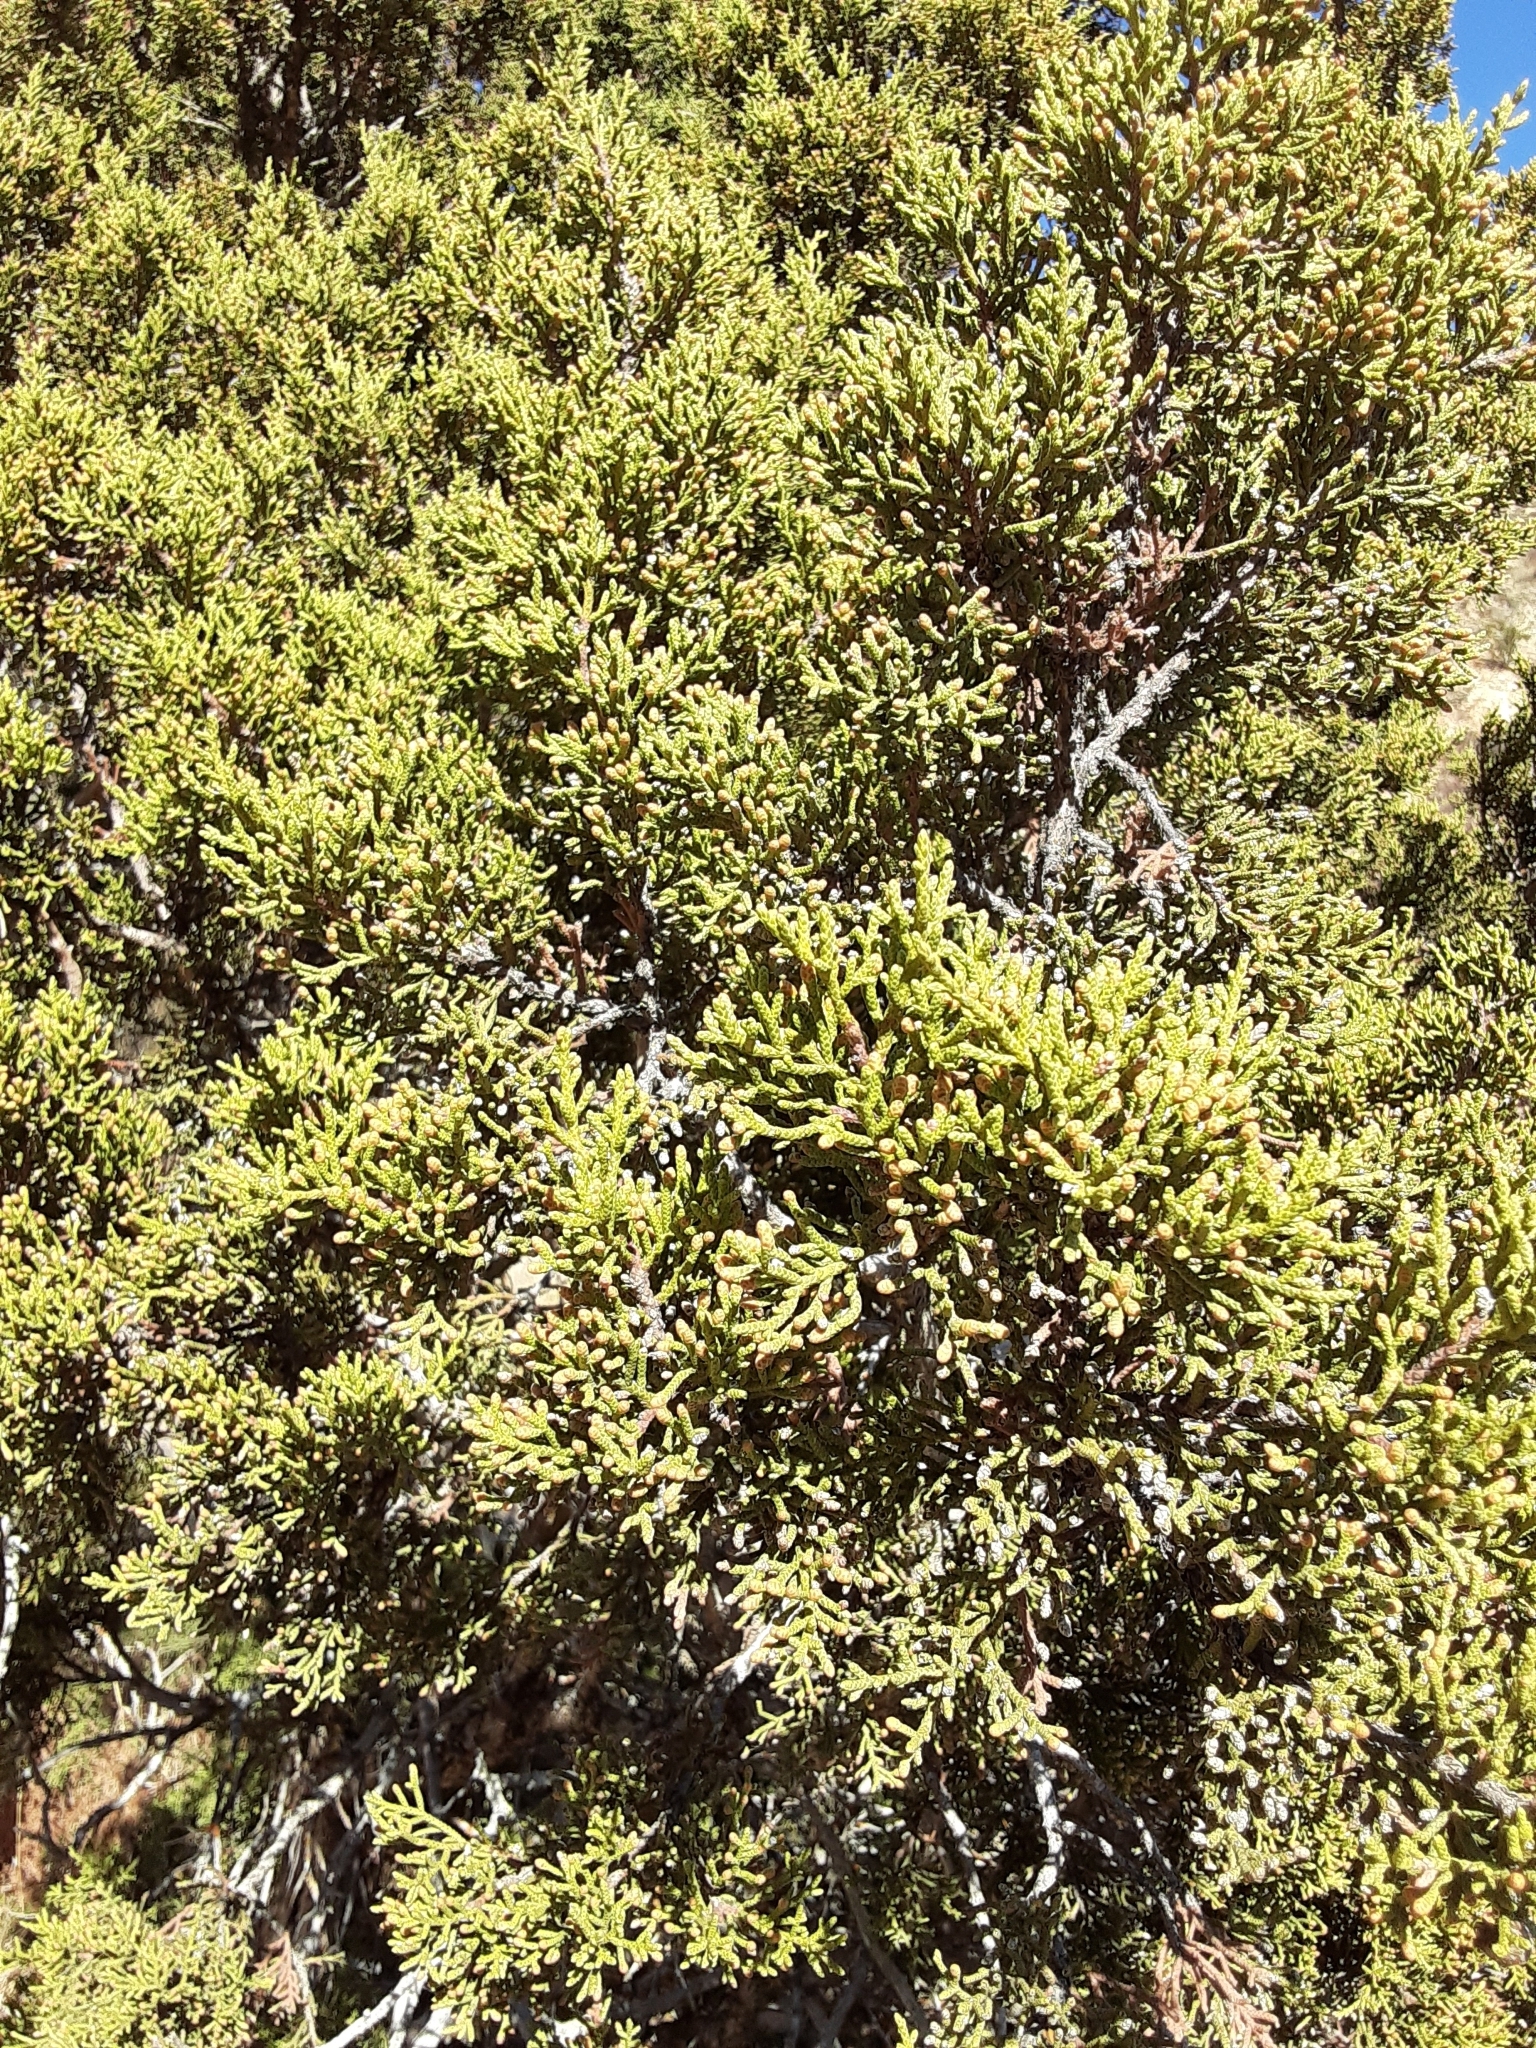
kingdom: Plantae
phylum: Tracheophyta
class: Pinopsida
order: Pinales
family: Cupressaceae
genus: Juniperus
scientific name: Juniperus californica
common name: California juniper
